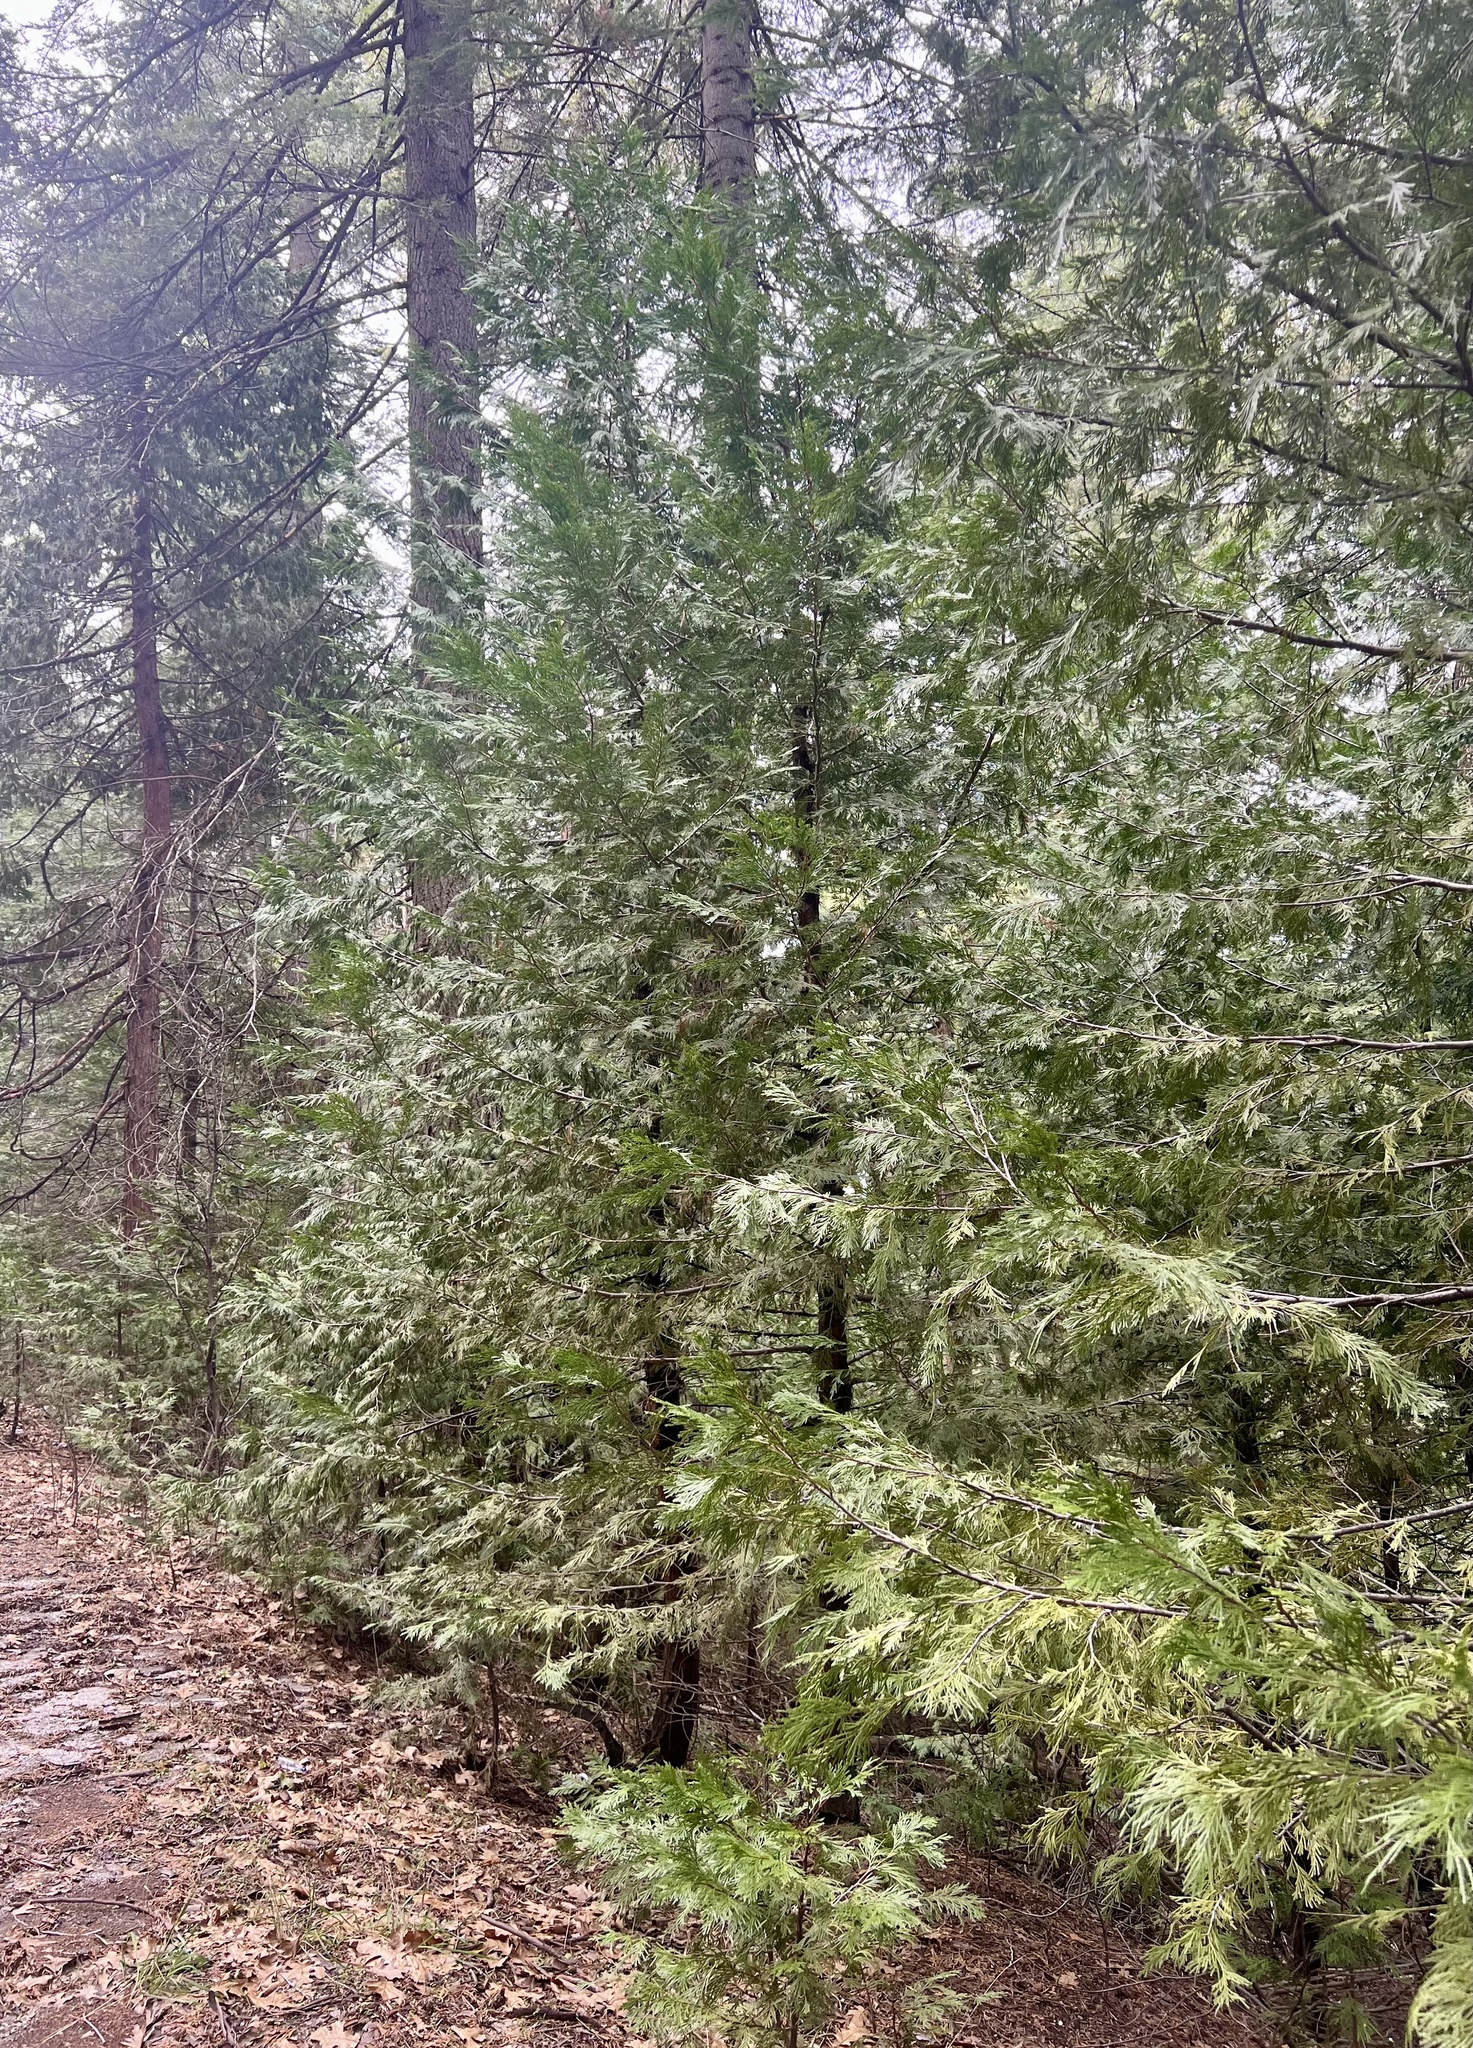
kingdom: Plantae
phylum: Tracheophyta
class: Pinopsida
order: Pinales
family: Cupressaceae
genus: Calocedrus
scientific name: Calocedrus decurrens
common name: Californian incense-cedar
